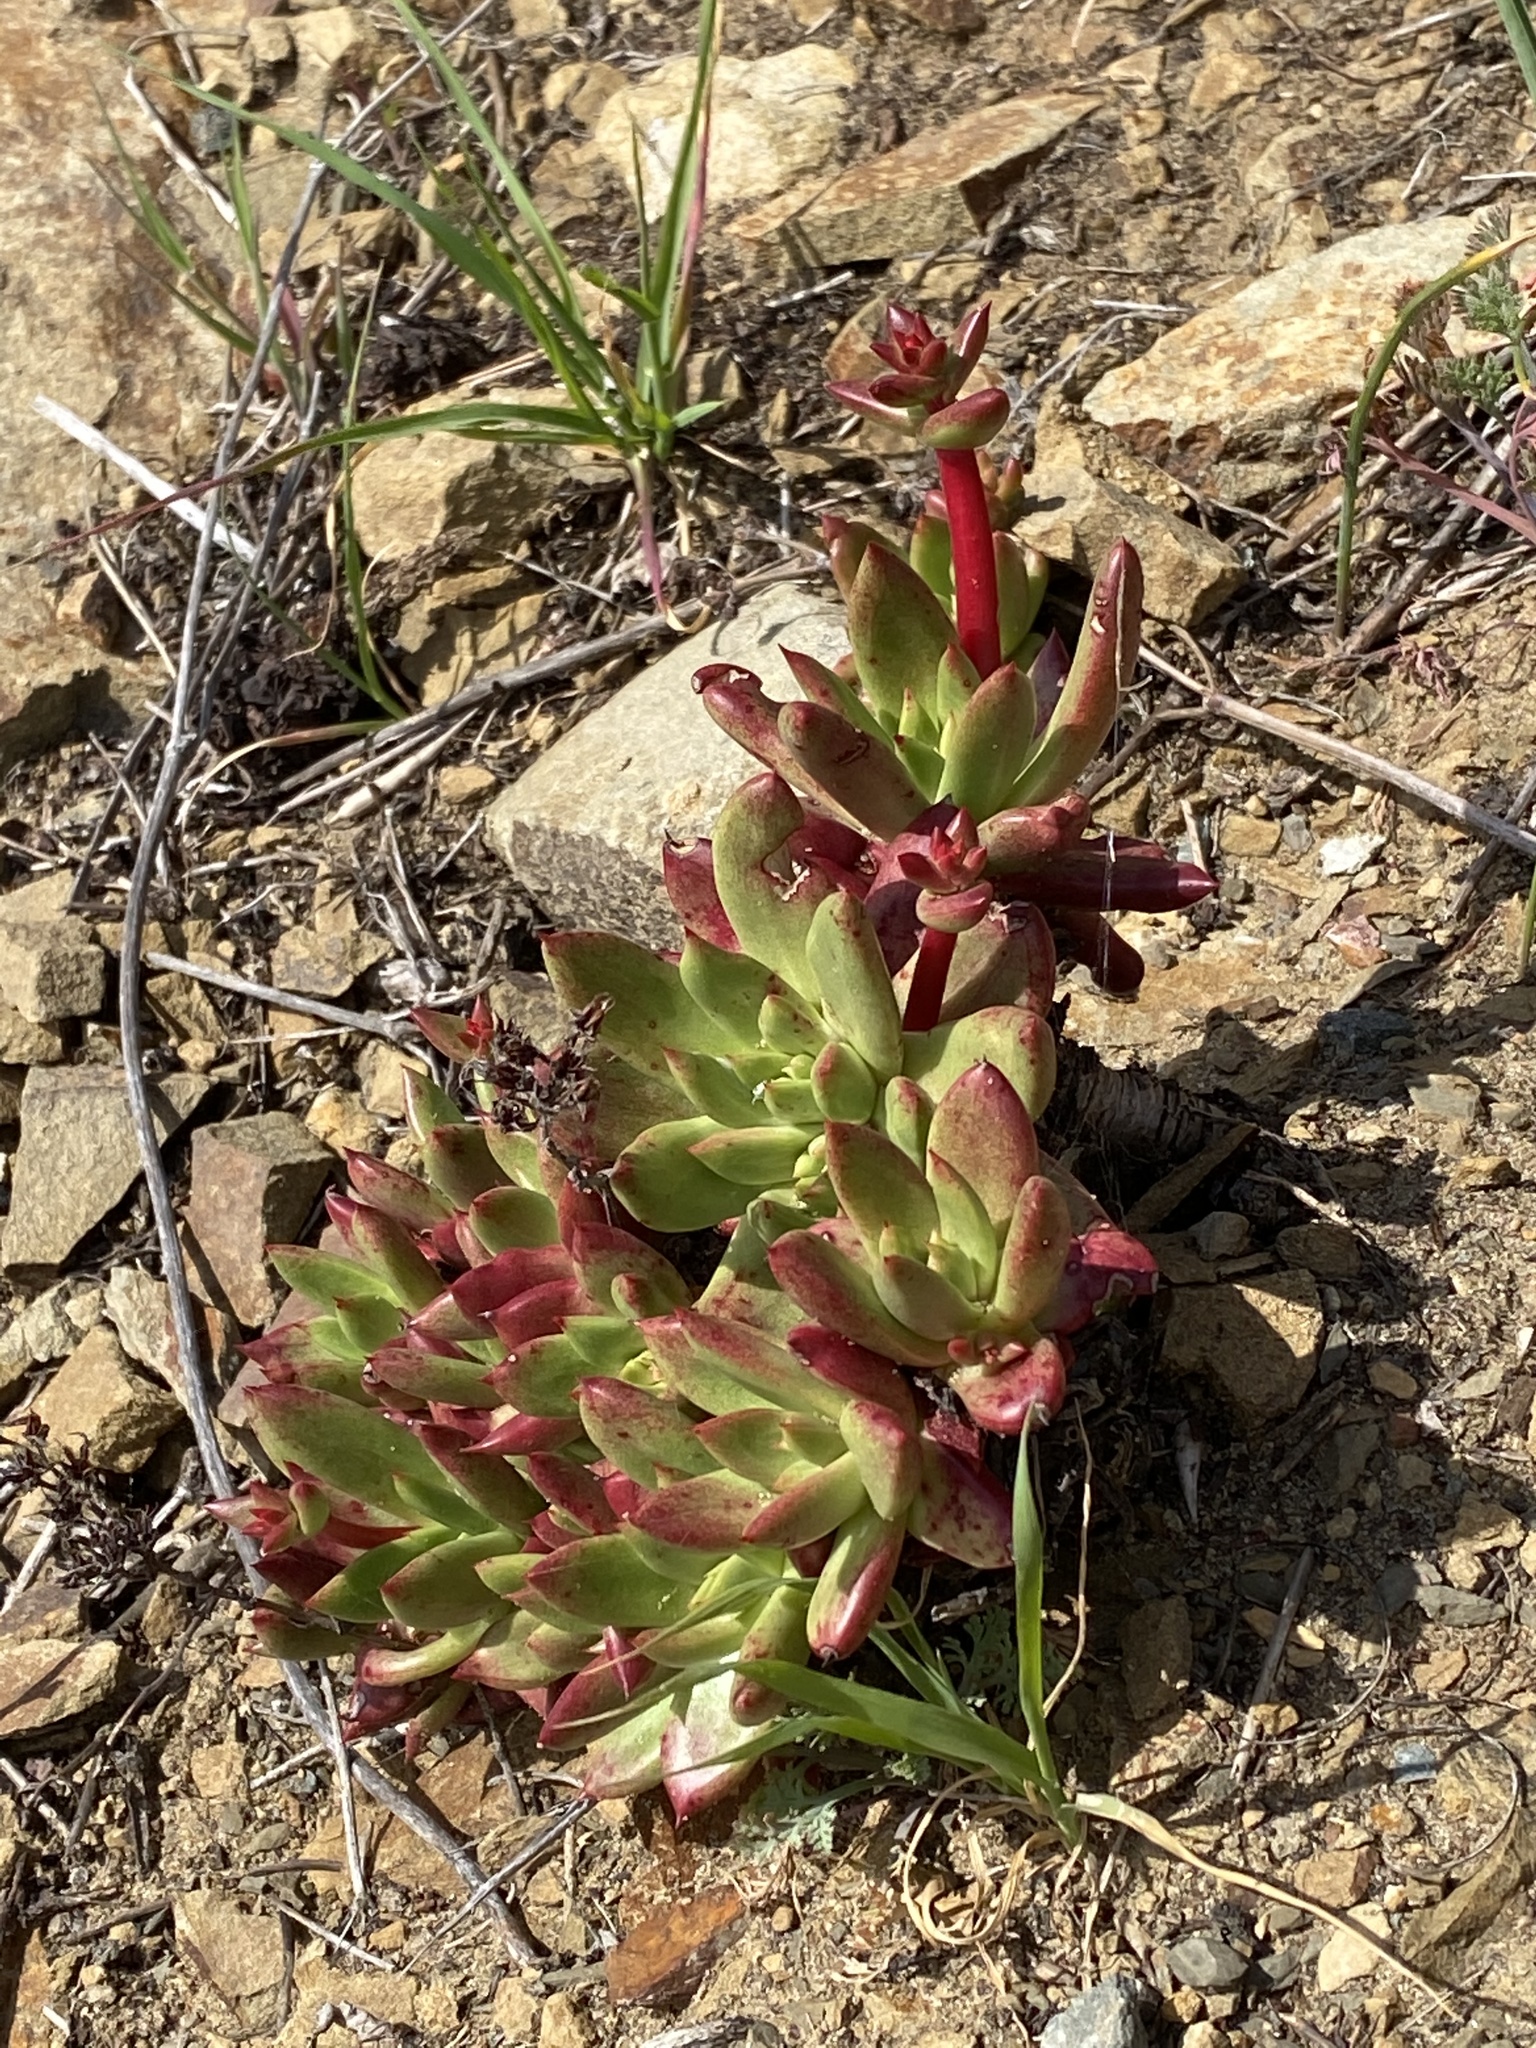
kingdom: Plantae
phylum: Tracheophyta
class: Magnoliopsida
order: Saxifragales
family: Crassulaceae
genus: Dudleya
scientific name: Dudleya farinosa
